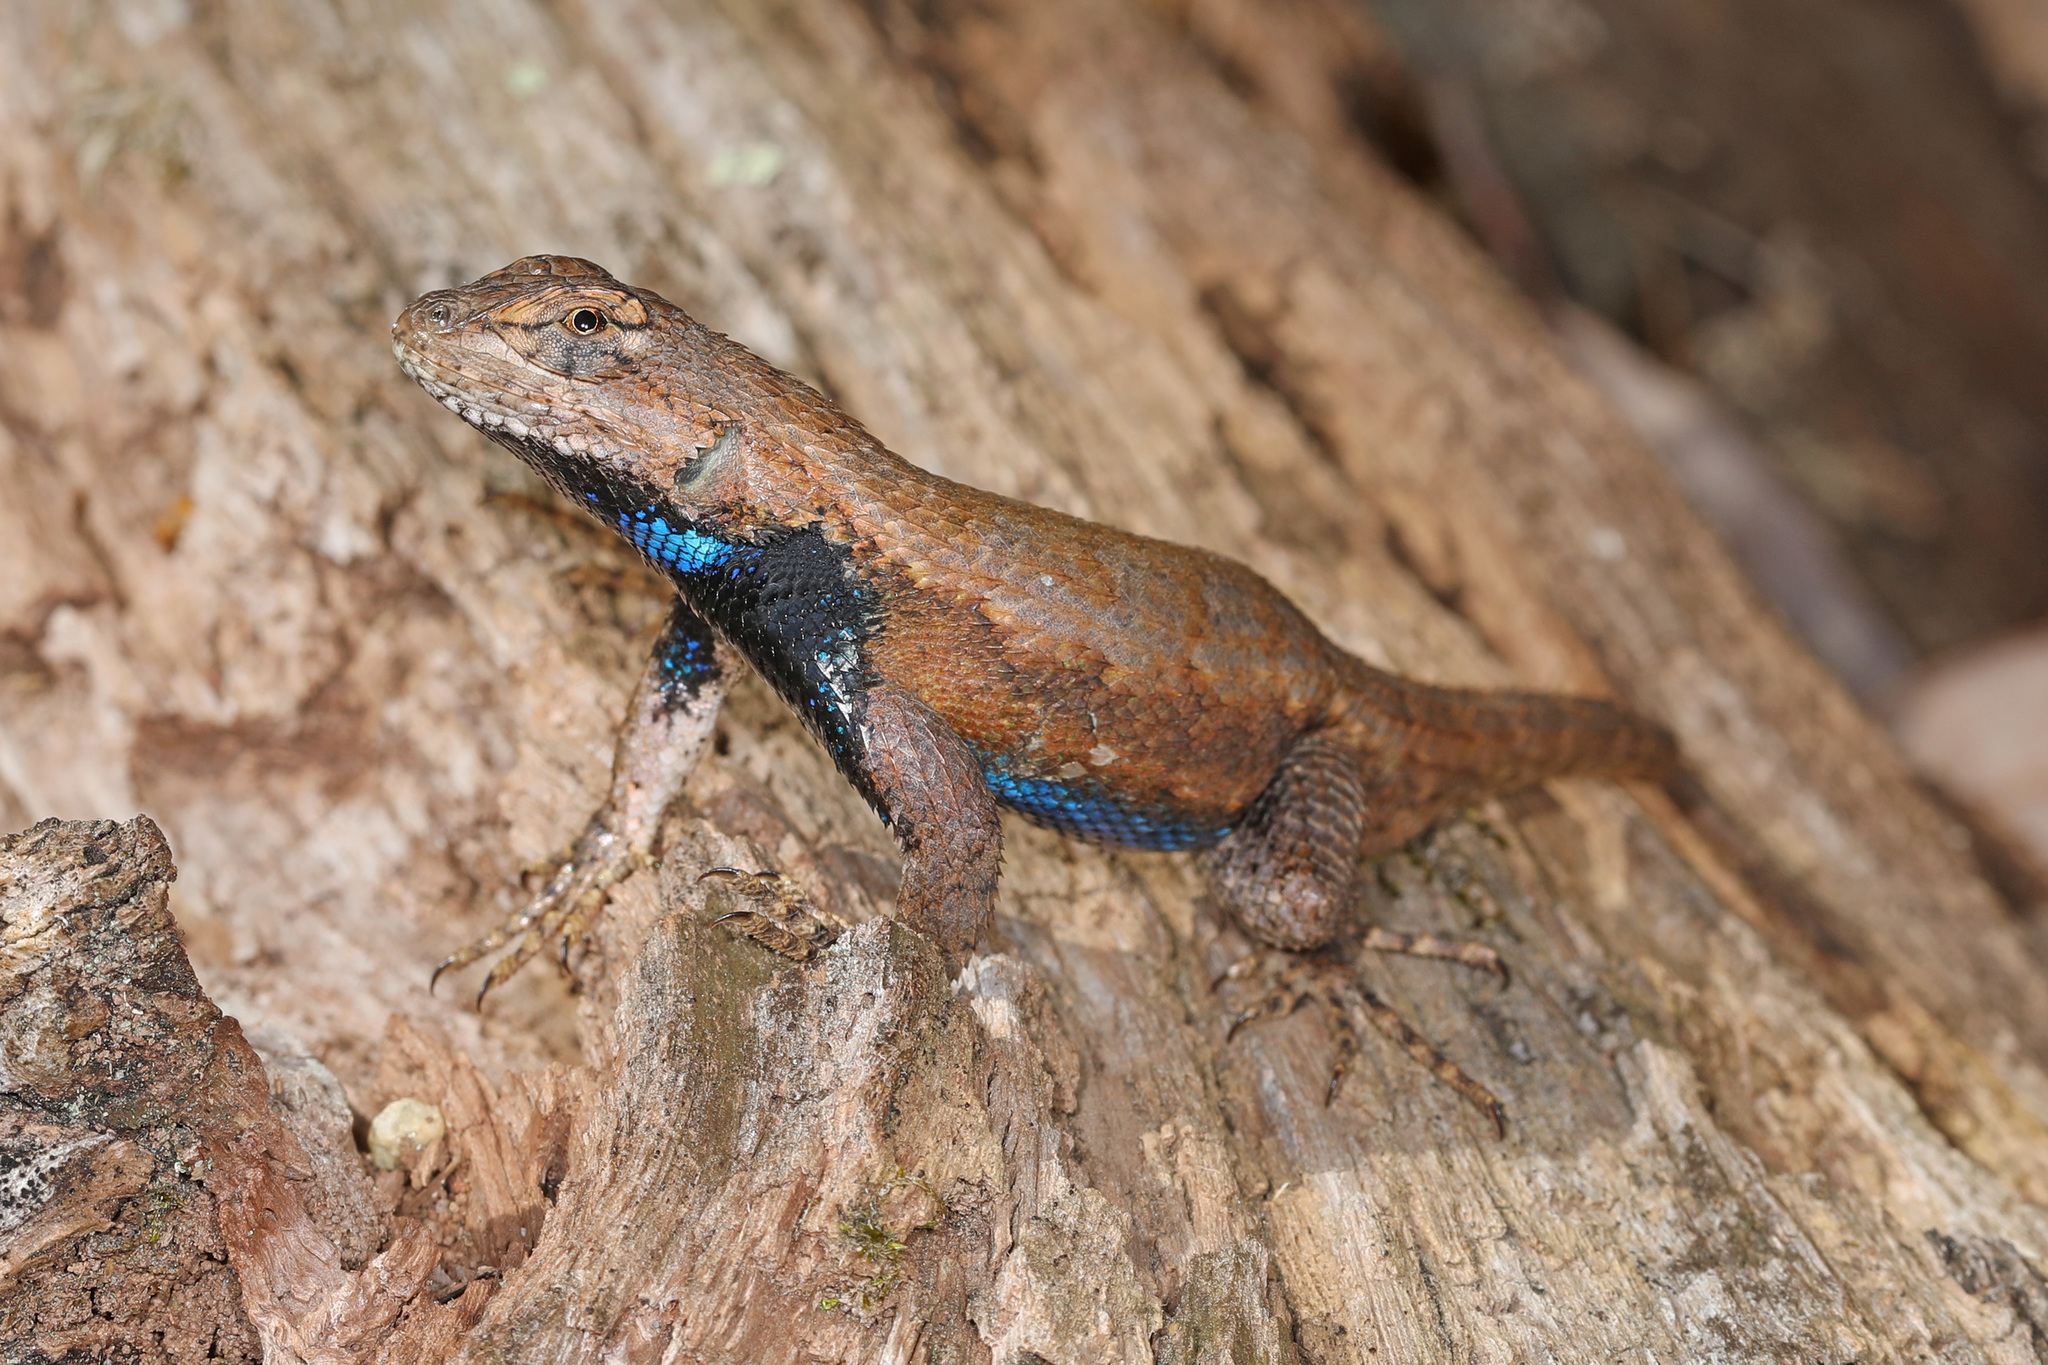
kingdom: Animalia
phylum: Chordata
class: Squamata
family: Phrynosomatidae
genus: Sceloporus
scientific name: Sceloporus undulatus
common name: Eastern fence lizard
